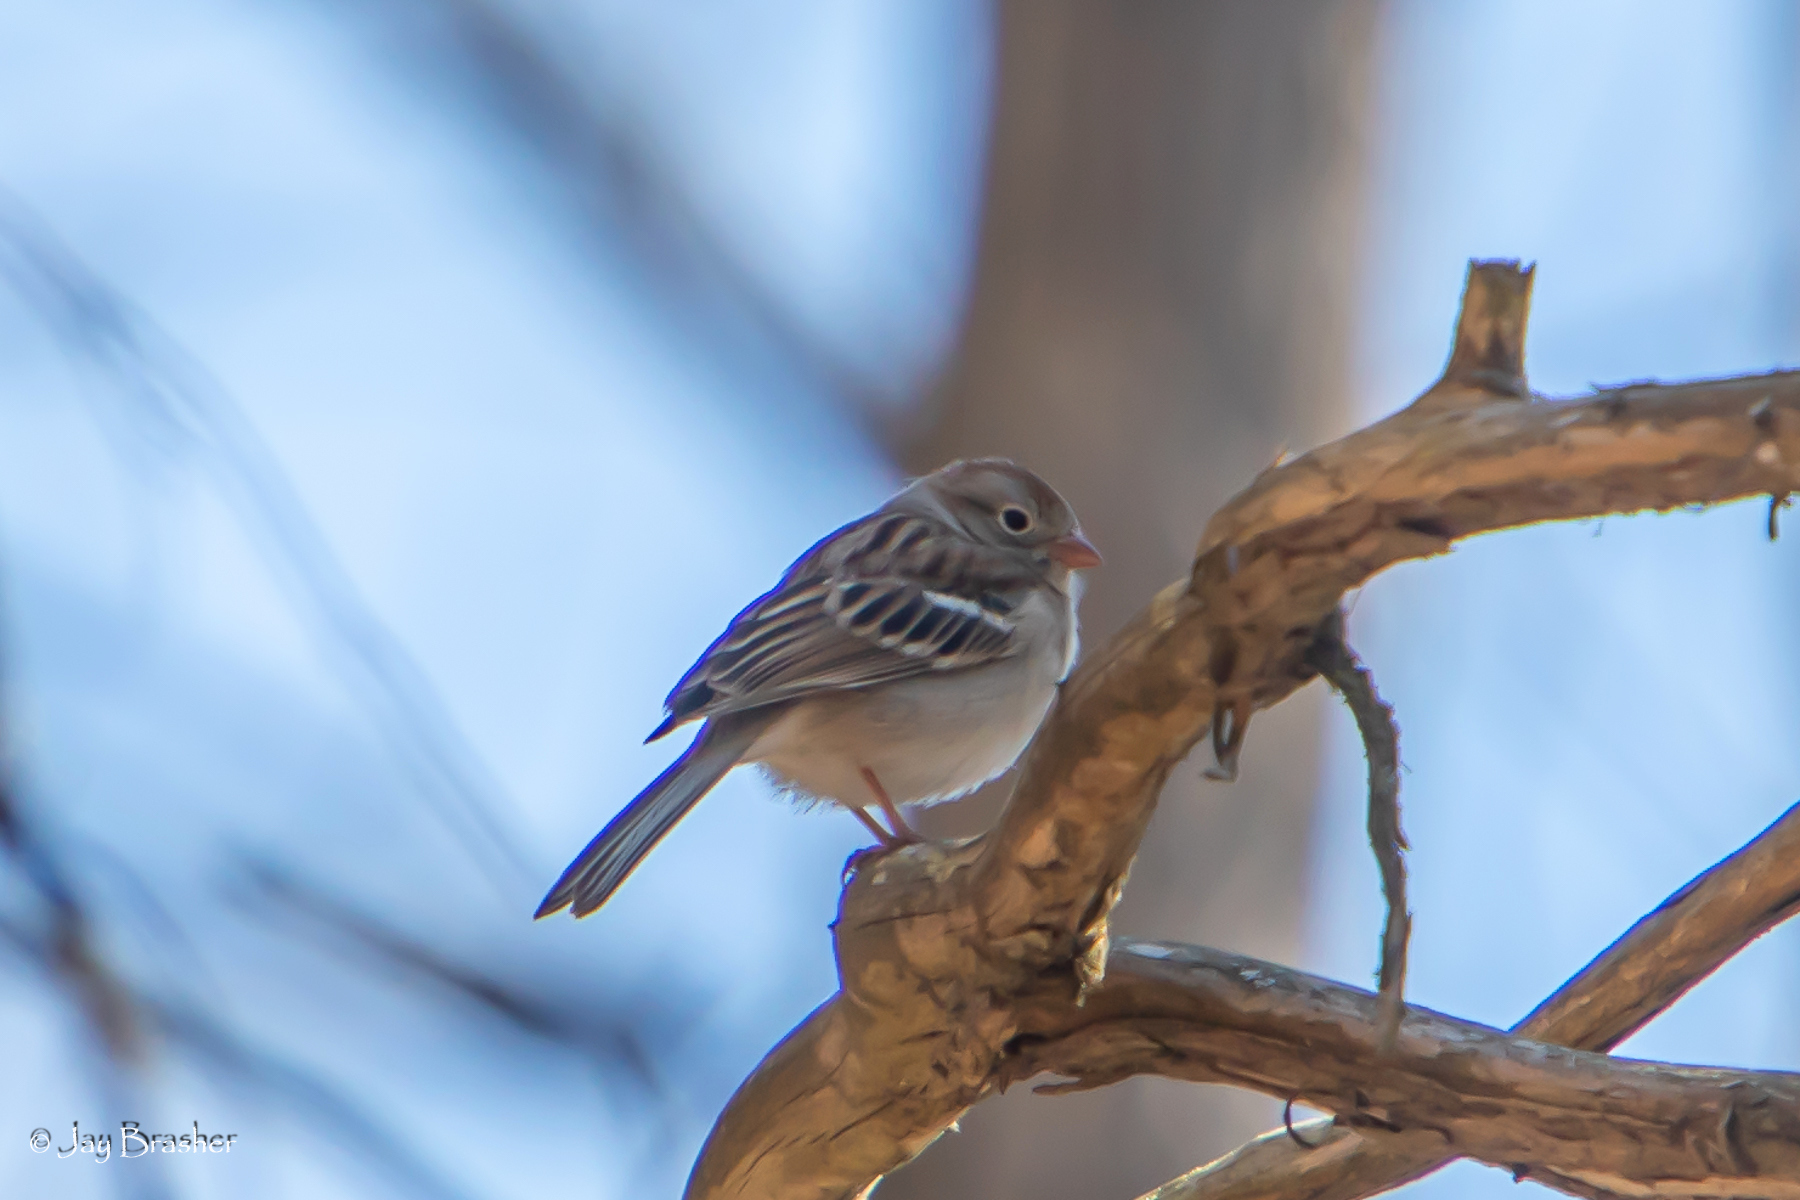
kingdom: Animalia
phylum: Chordata
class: Aves
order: Passeriformes
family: Passerellidae
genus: Spizella
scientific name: Spizella pusilla
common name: Field sparrow
